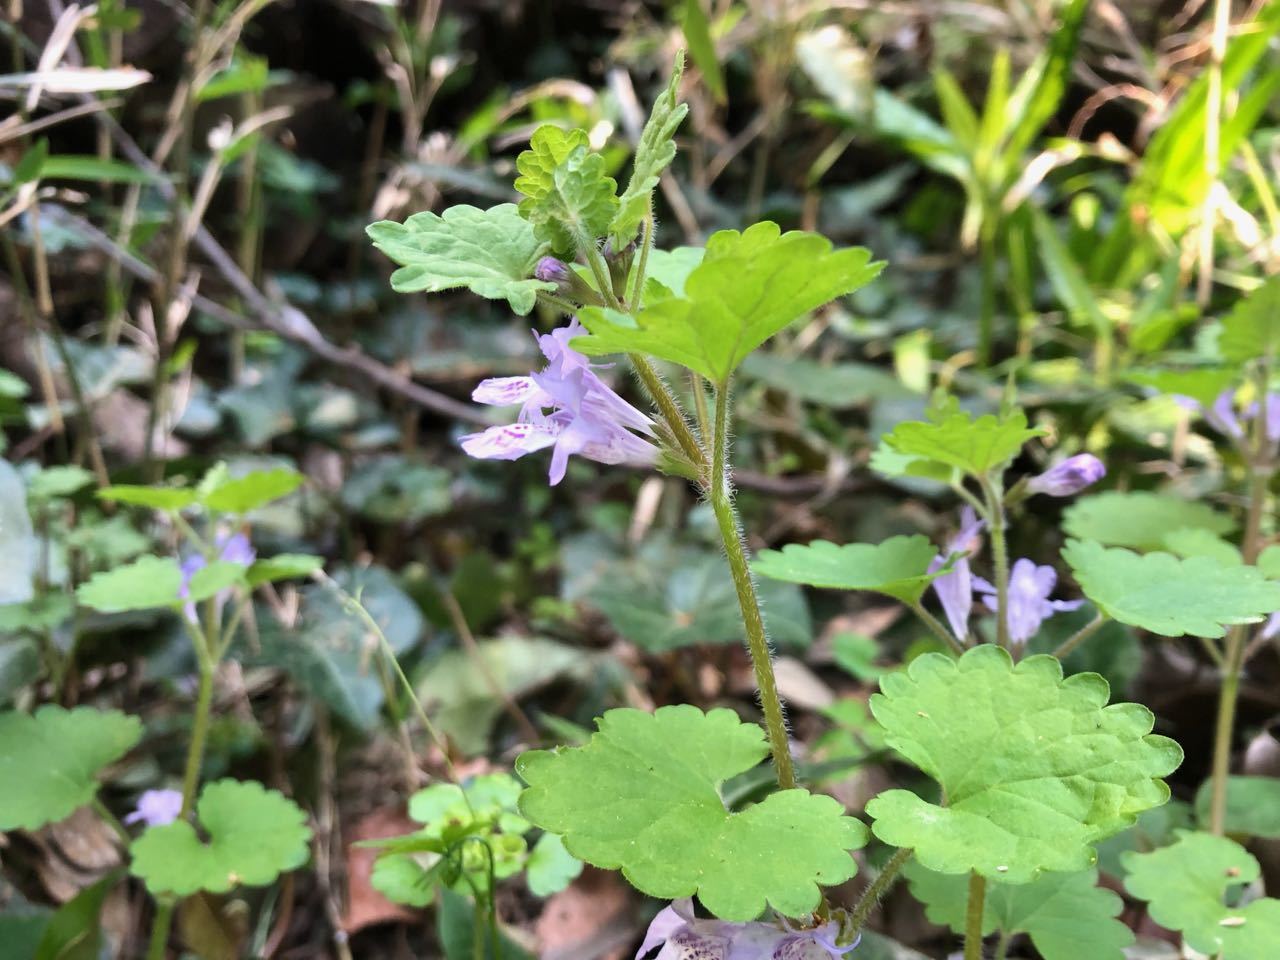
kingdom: Plantae
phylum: Tracheophyta
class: Magnoliopsida
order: Lamiales
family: Lamiaceae
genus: Glechoma
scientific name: Glechoma grandis
